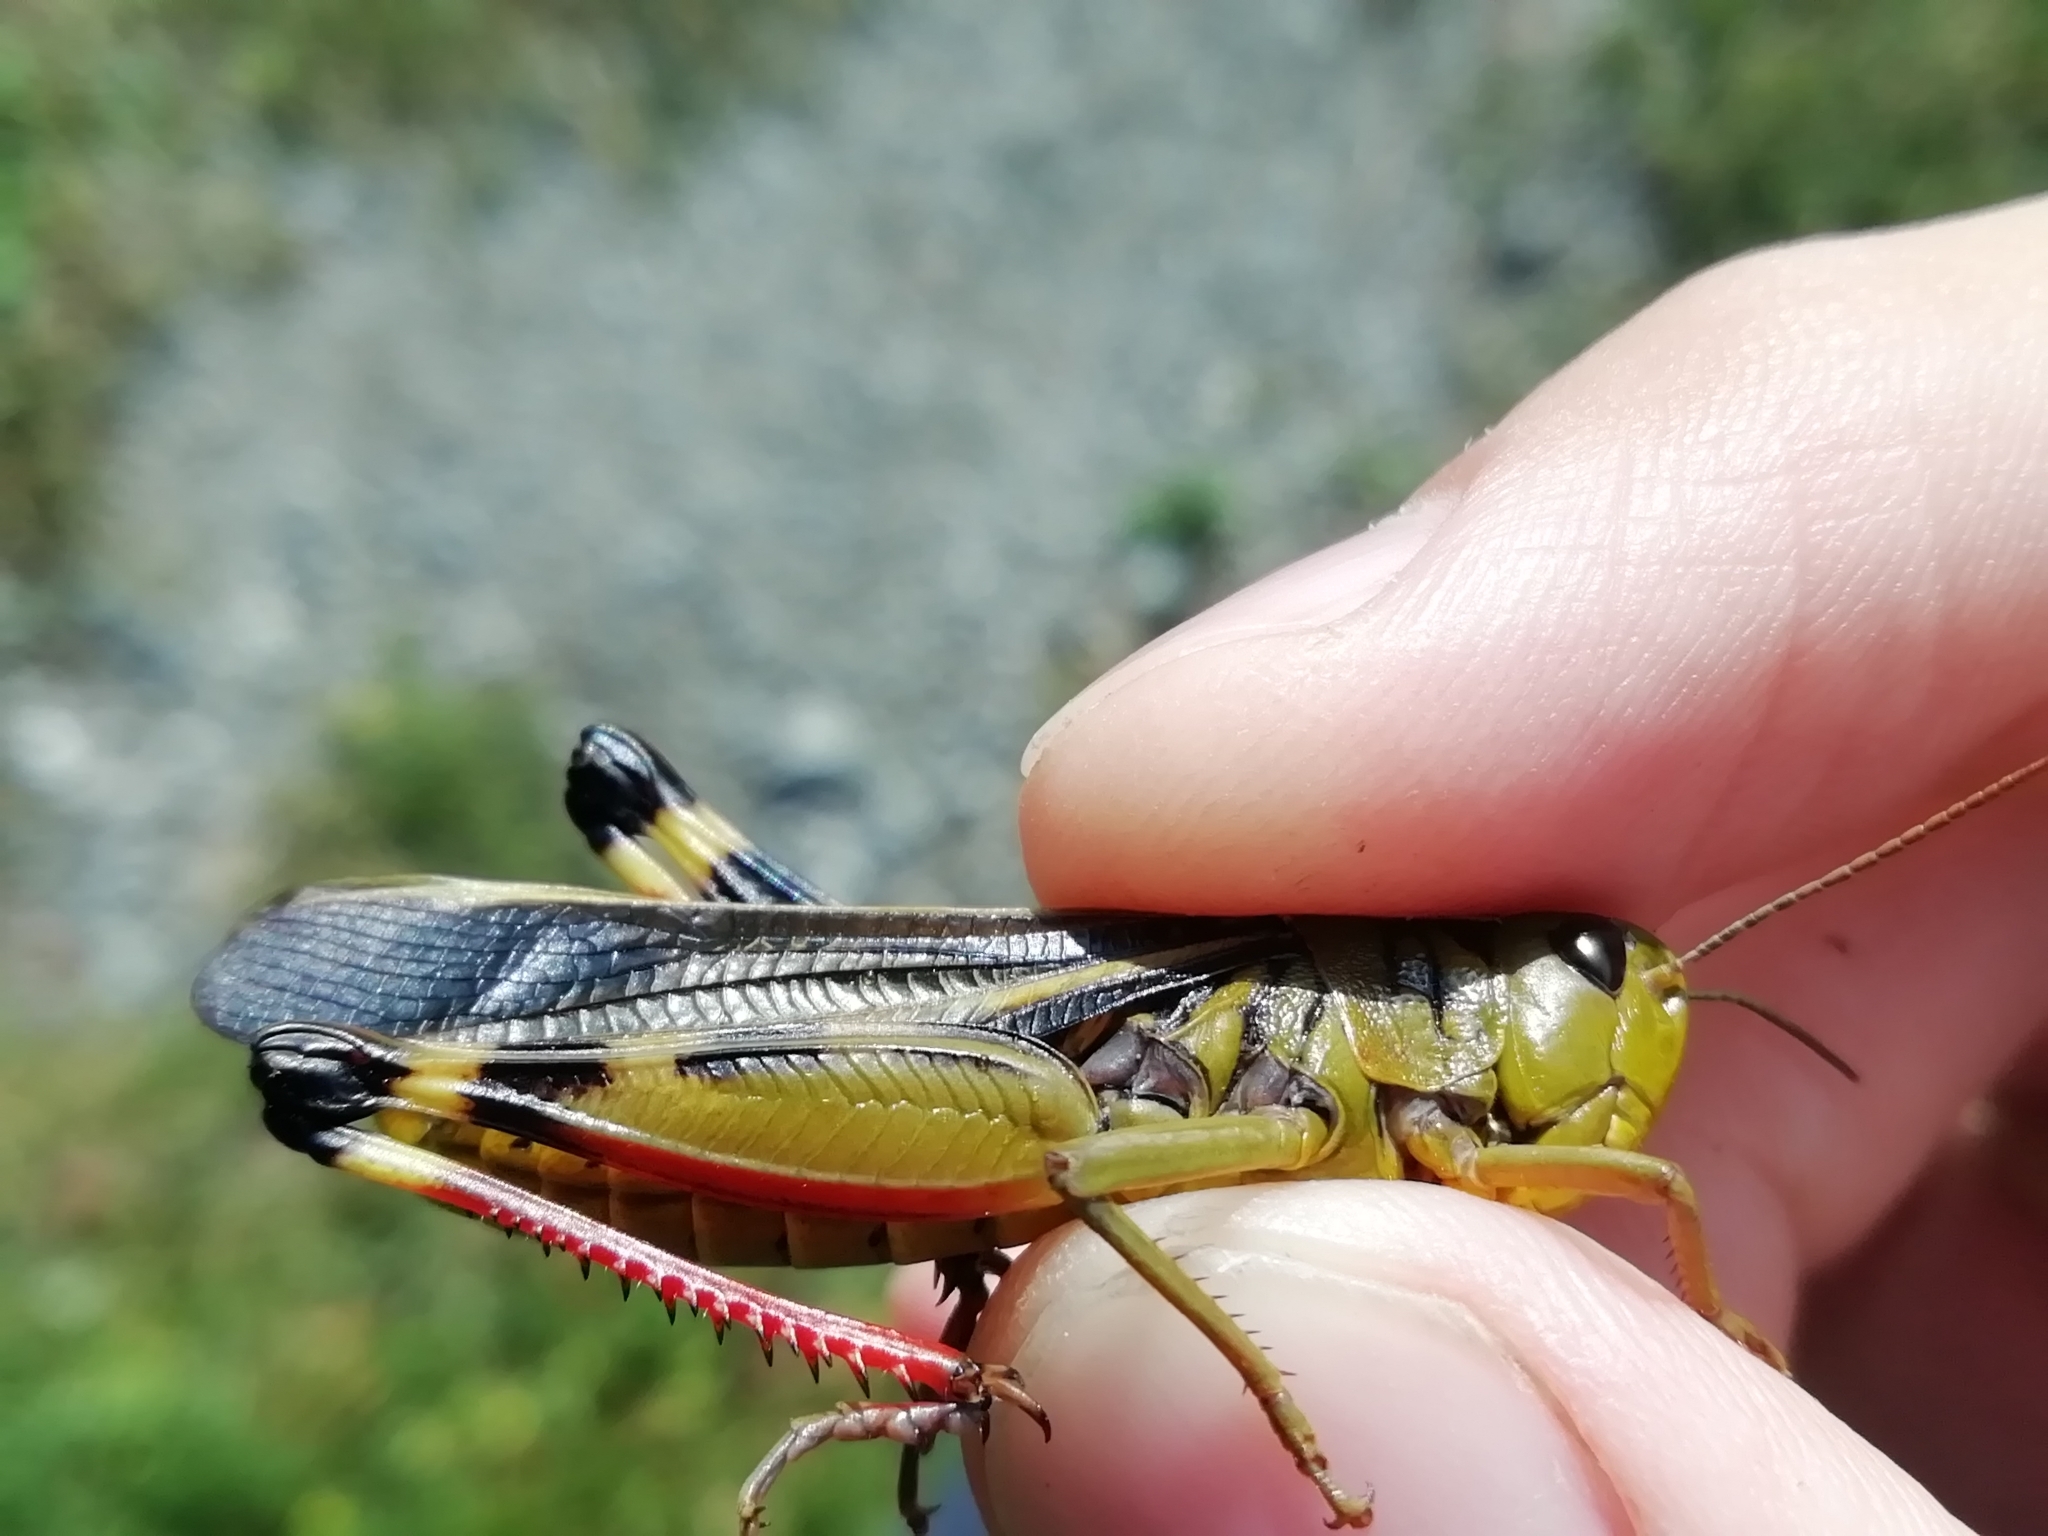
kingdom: Animalia
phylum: Arthropoda
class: Insecta
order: Orthoptera
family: Acrididae
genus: Arcyptera
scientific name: Arcyptera fusca
